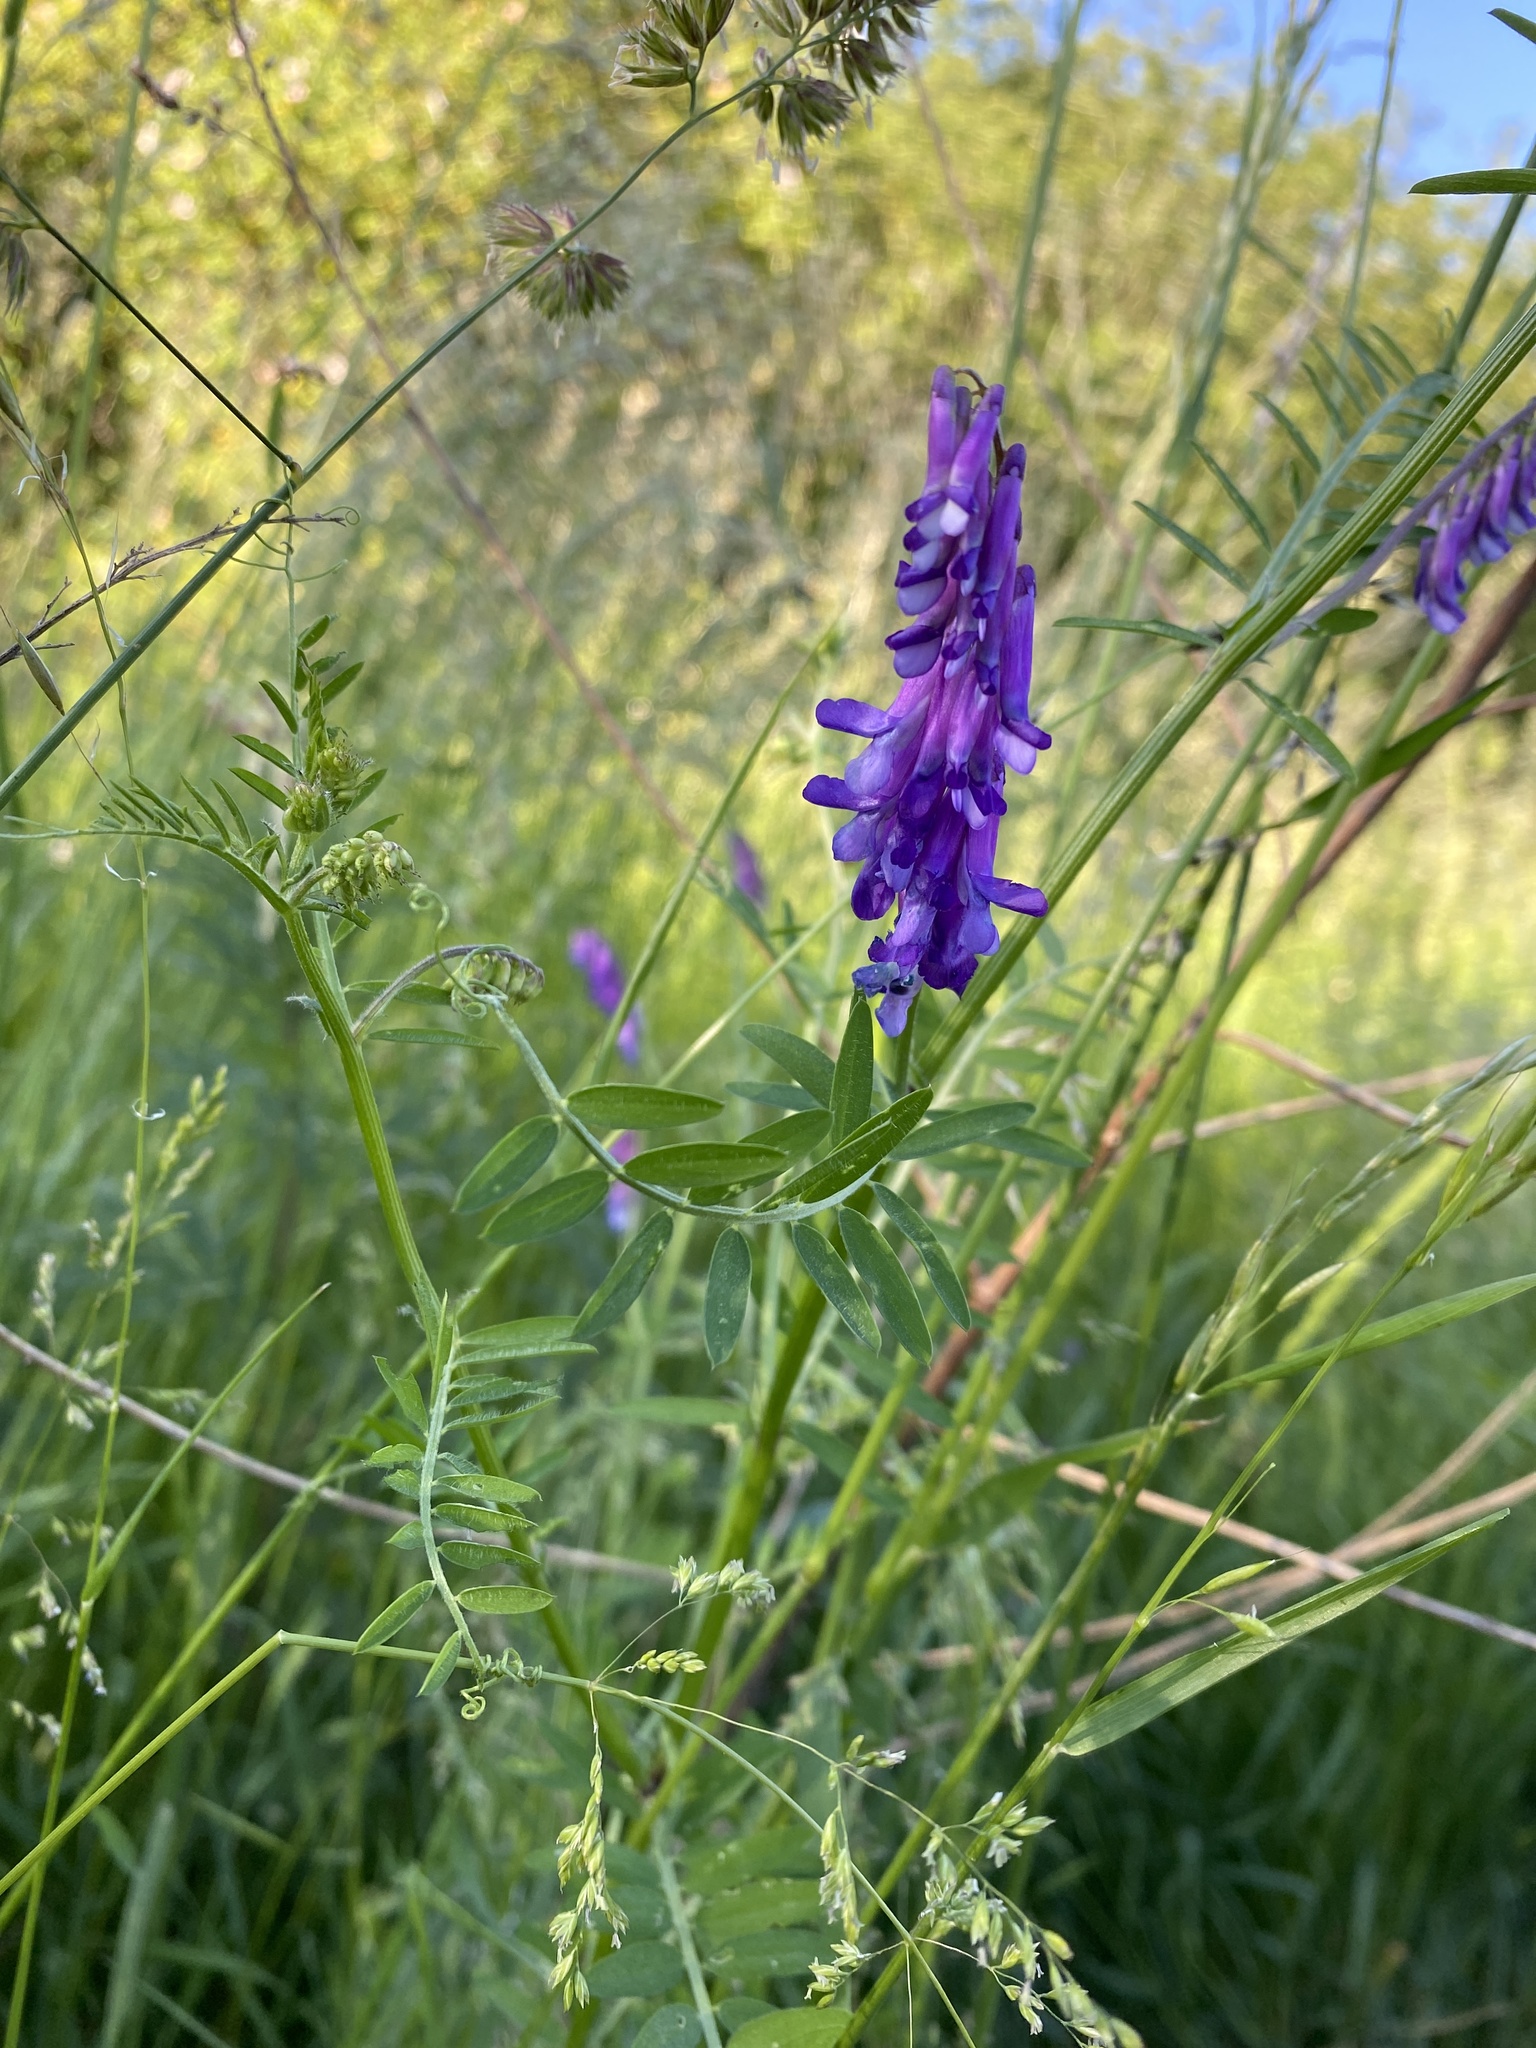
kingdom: Plantae
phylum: Tracheophyta
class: Magnoliopsida
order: Fabales
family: Fabaceae
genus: Vicia
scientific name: Vicia villosa
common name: Fodder vetch
